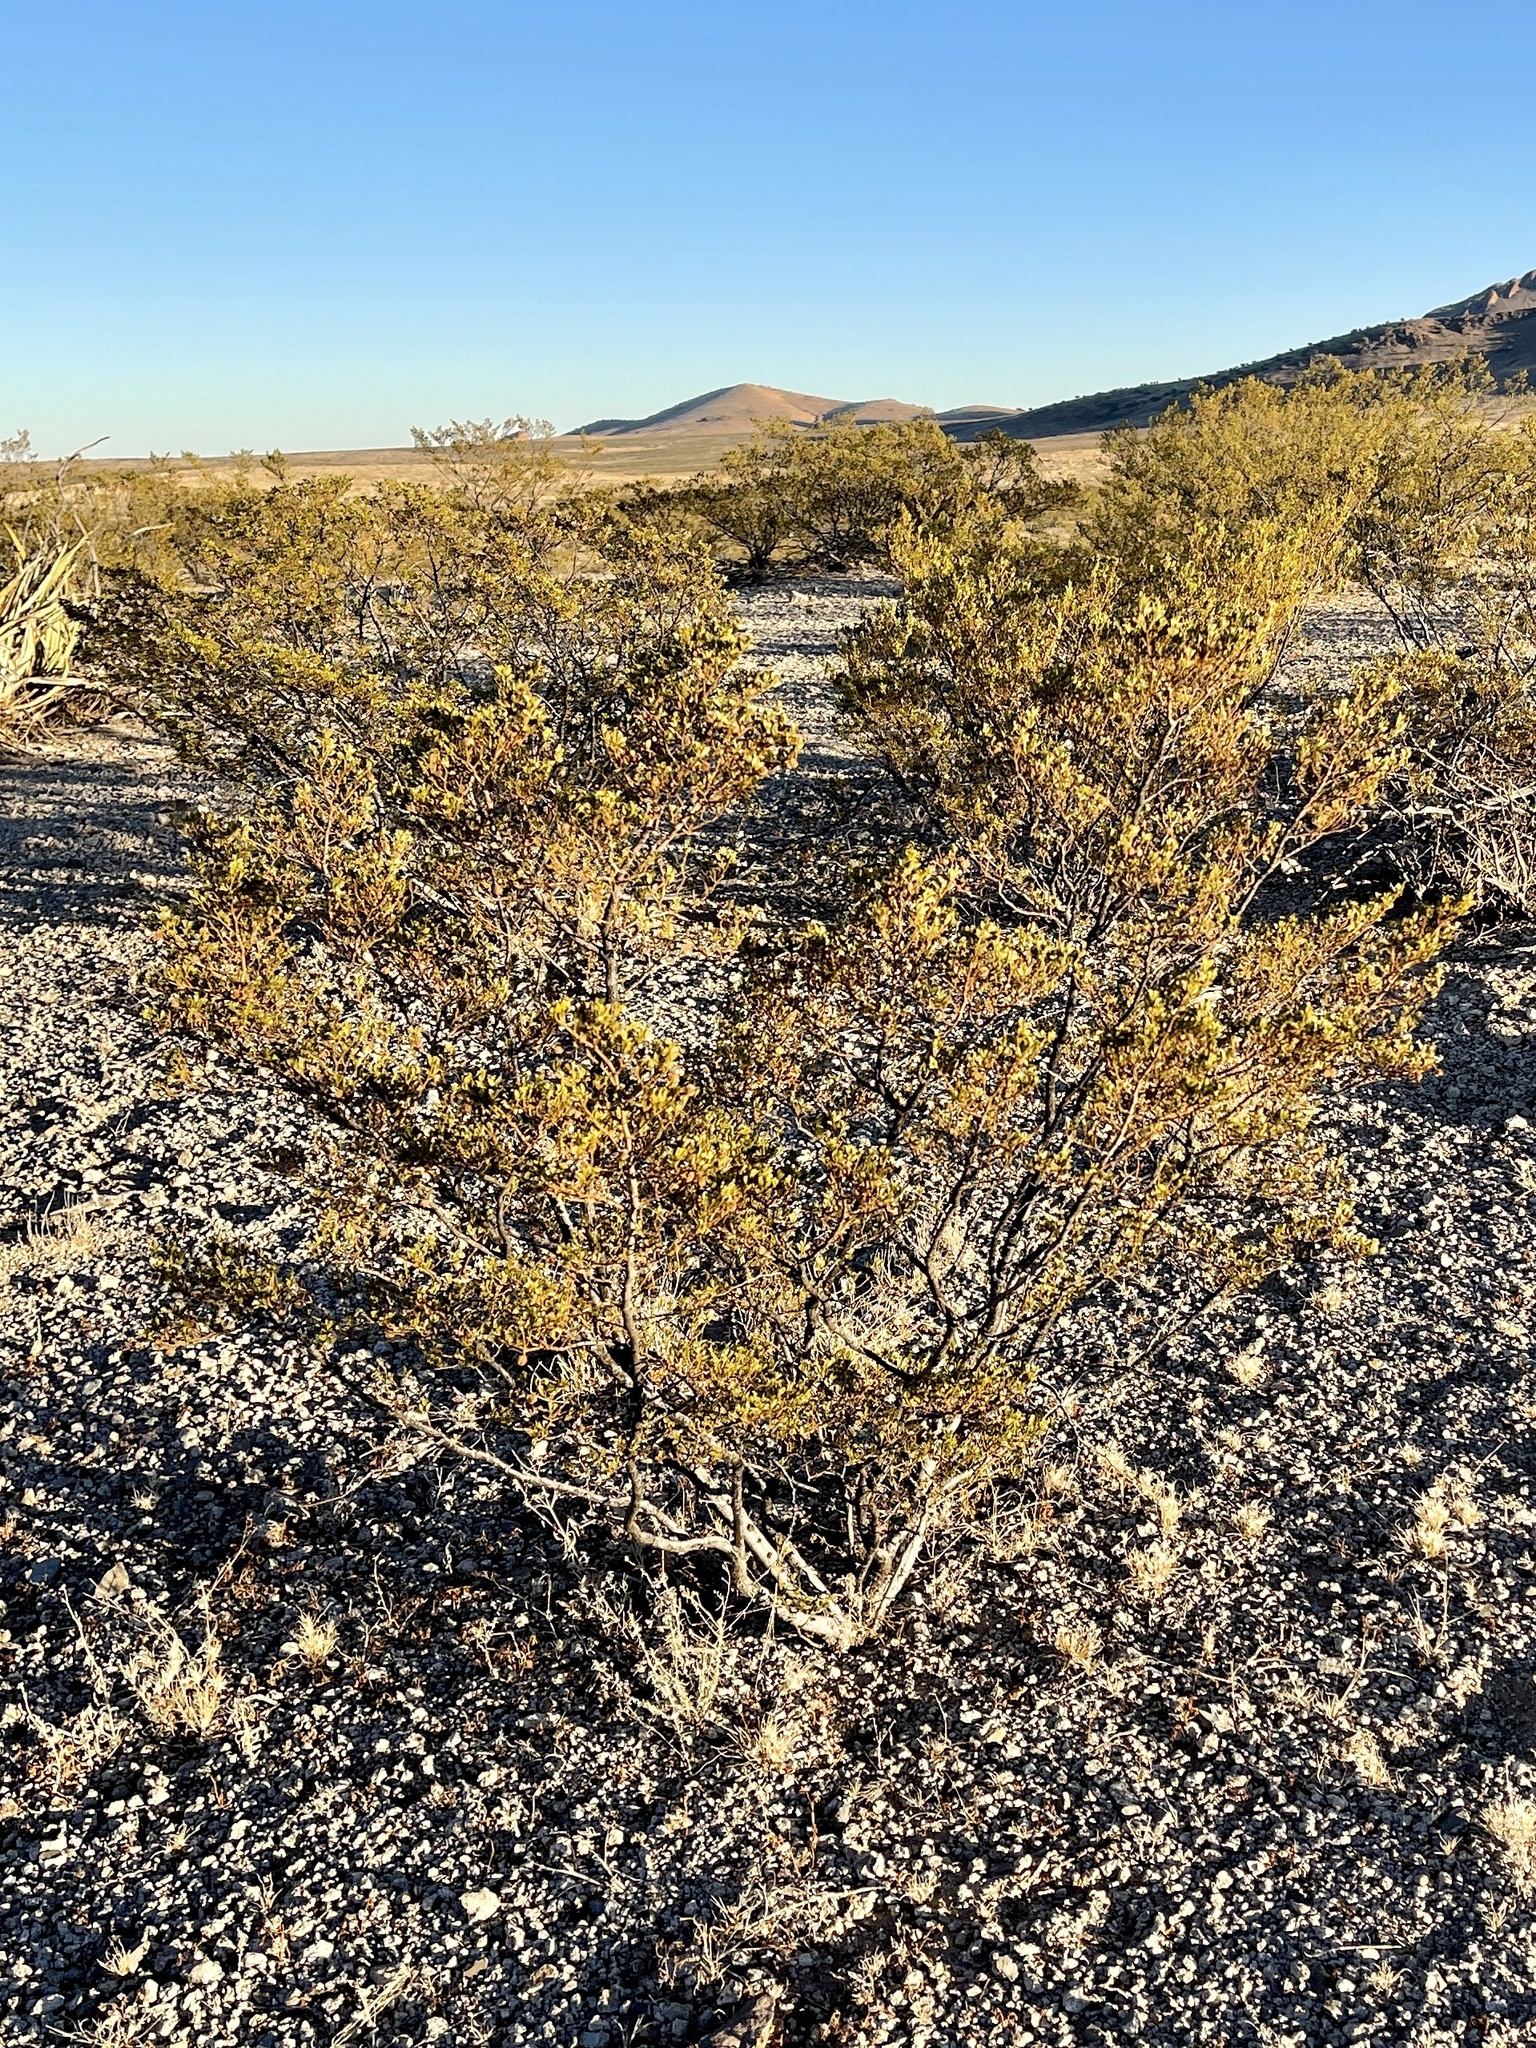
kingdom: Plantae
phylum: Tracheophyta
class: Magnoliopsida
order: Zygophyllales
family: Zygophyllaceae
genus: Larrea
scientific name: Larrea tridentata
